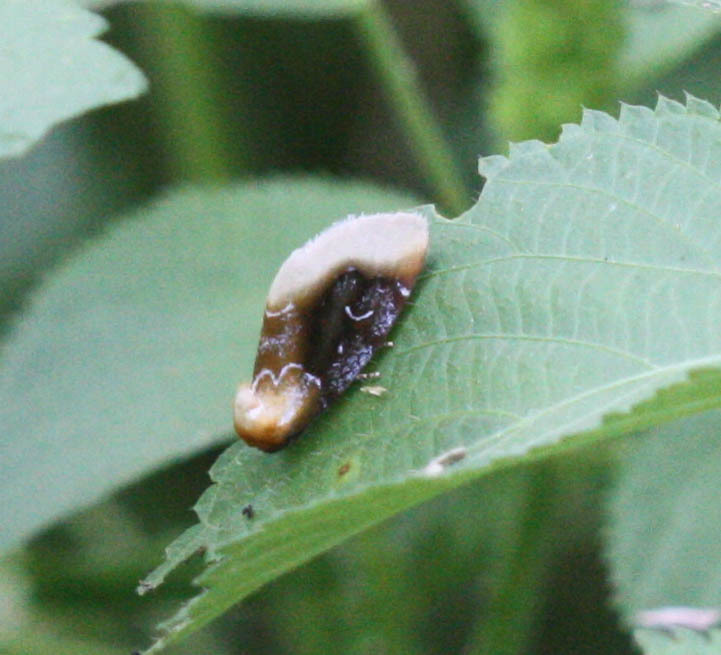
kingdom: Animalia
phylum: Arthropoda
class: Insecta
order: Lepidoptera
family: Noctuidae
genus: Chrysoecia
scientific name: Chrysoecia scira
